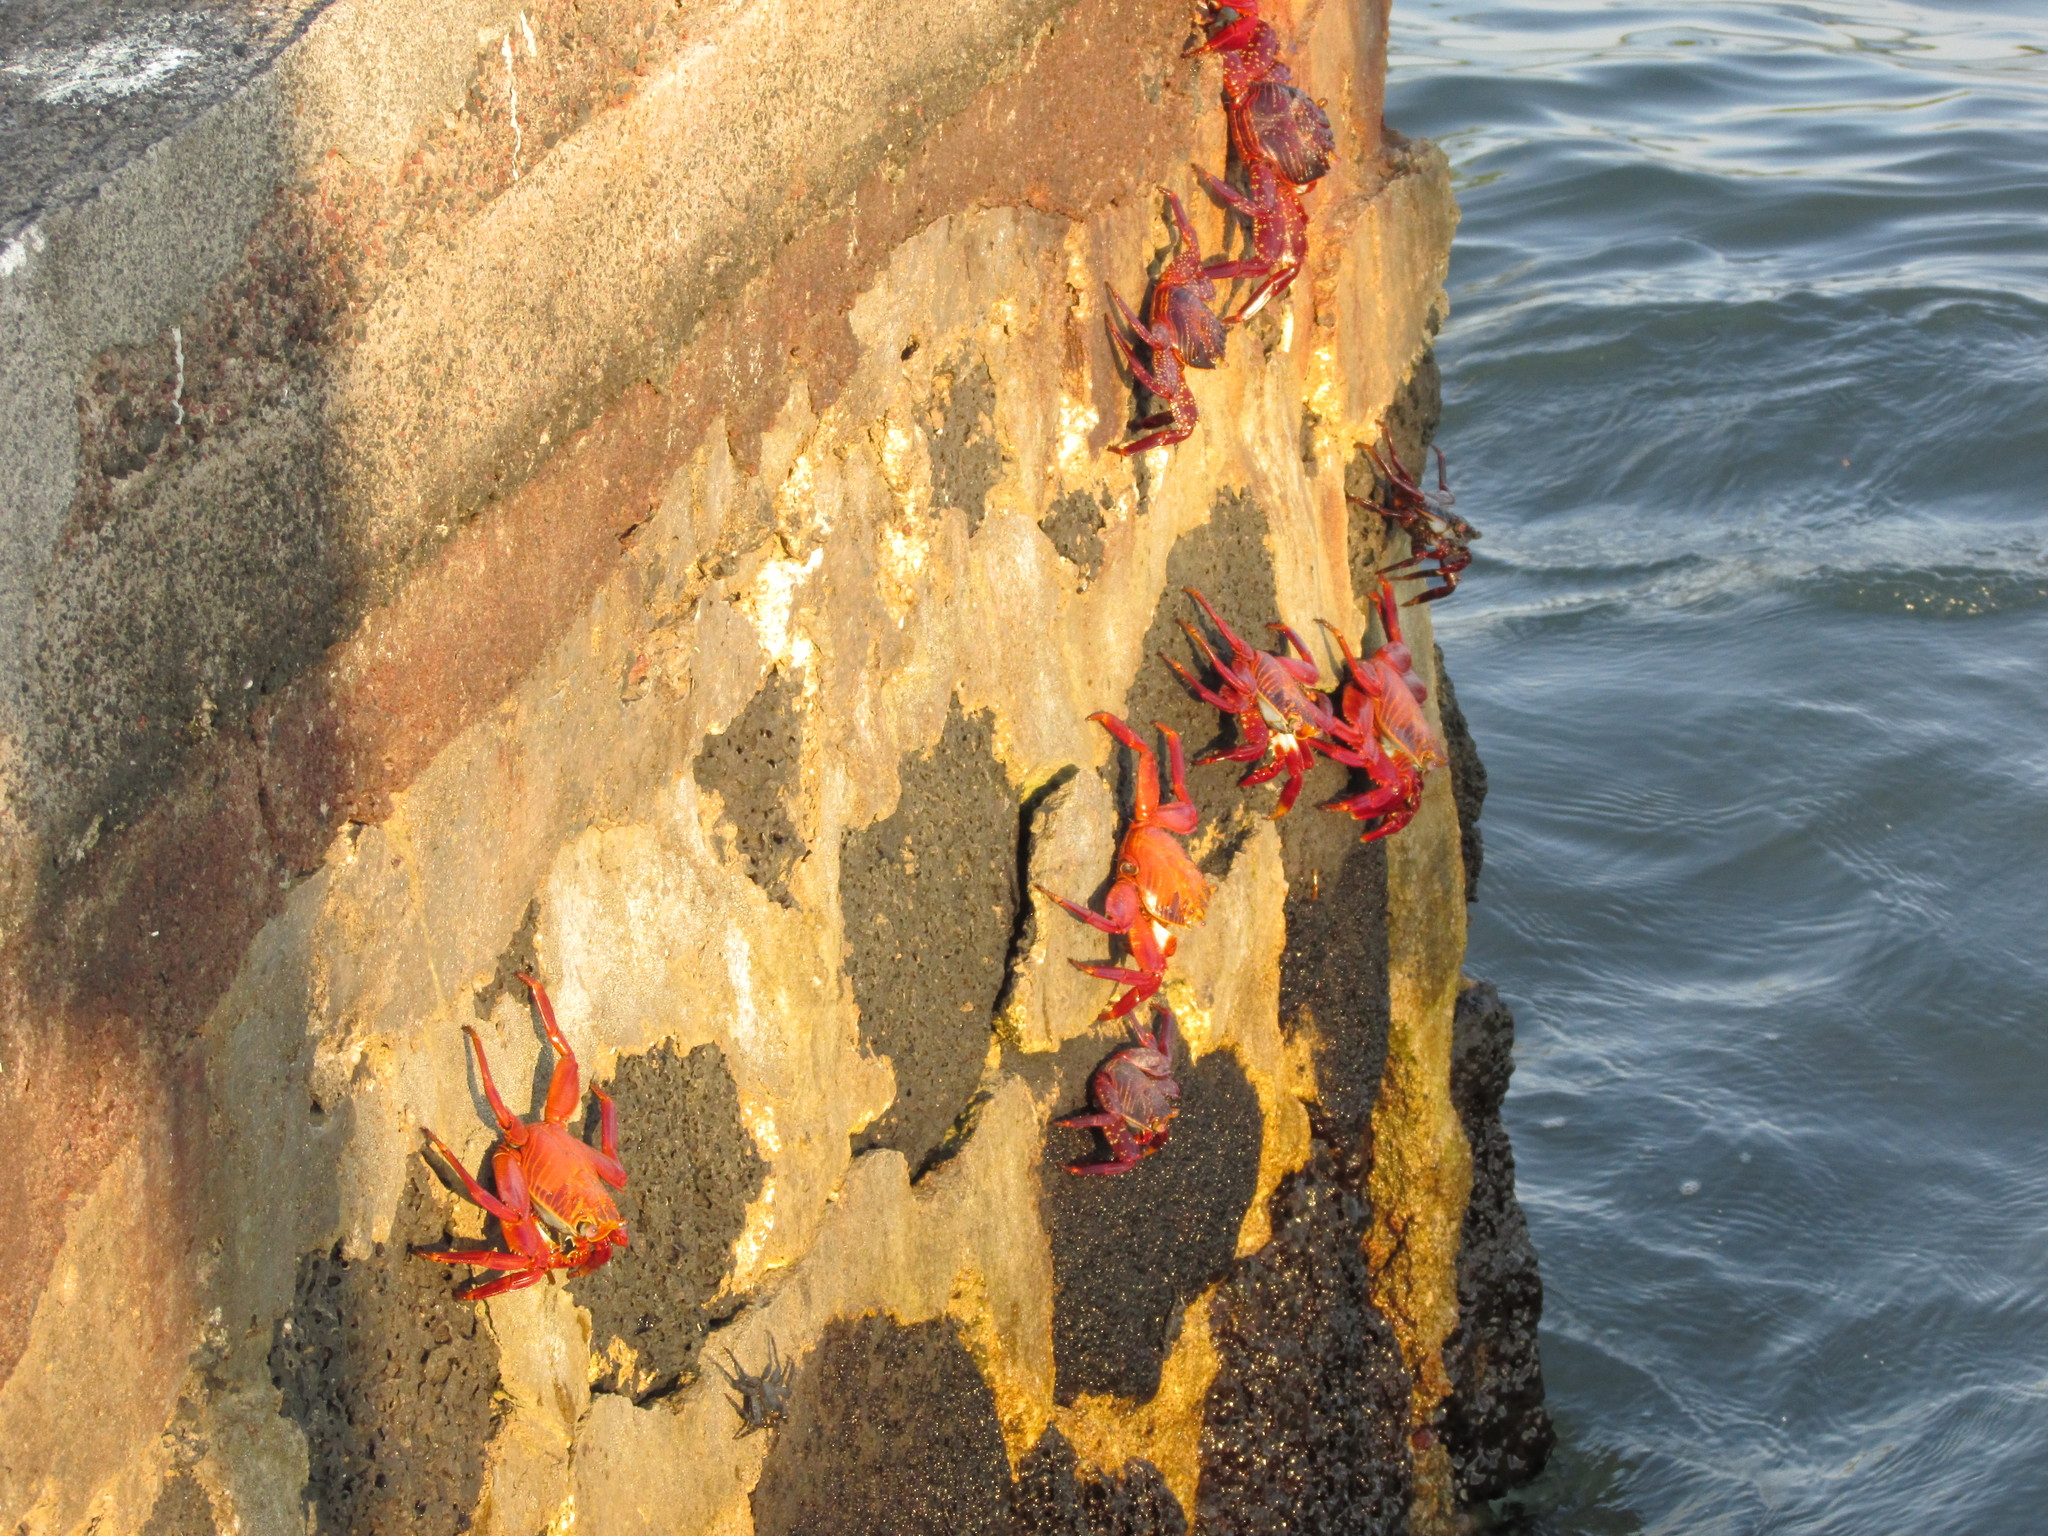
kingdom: Animalia
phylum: Arthropoda
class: Malacostraca
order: Decapoda
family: Grapsidae
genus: Grapsus
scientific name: Grapsus grapsus
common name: Sally lightfoot
